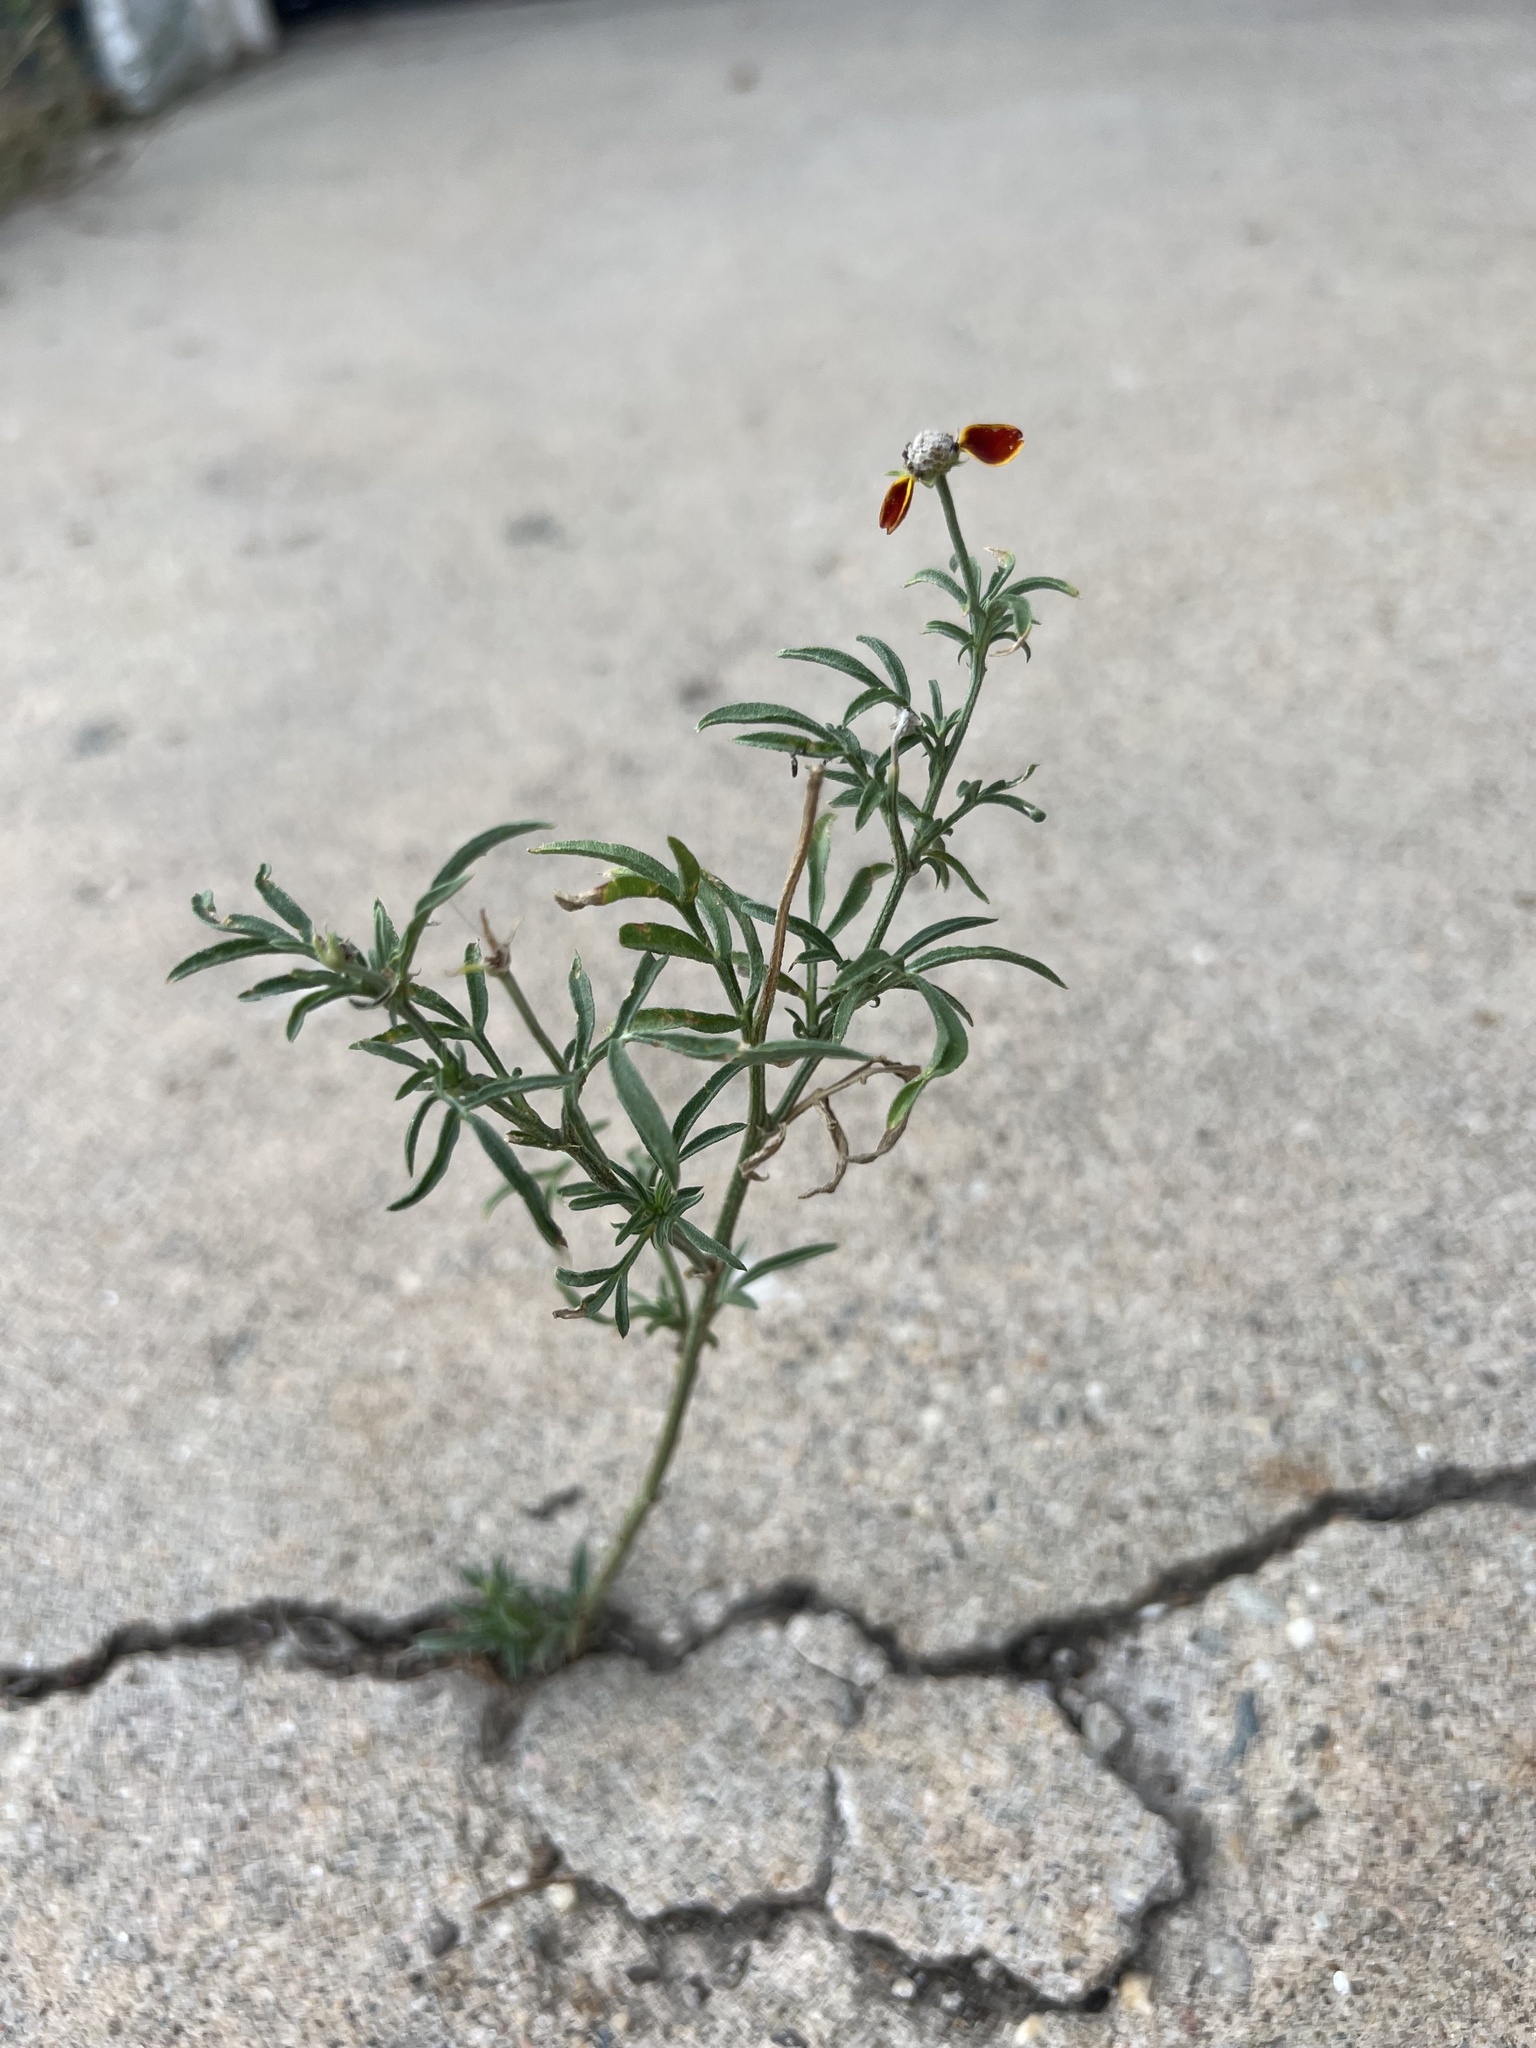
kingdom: Plantae
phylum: Tracheophyta
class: Magnoliopsida
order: Asterales
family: Asteraceae
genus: Ratibida
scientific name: Ratibida columnifera
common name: Prairie coneflower
